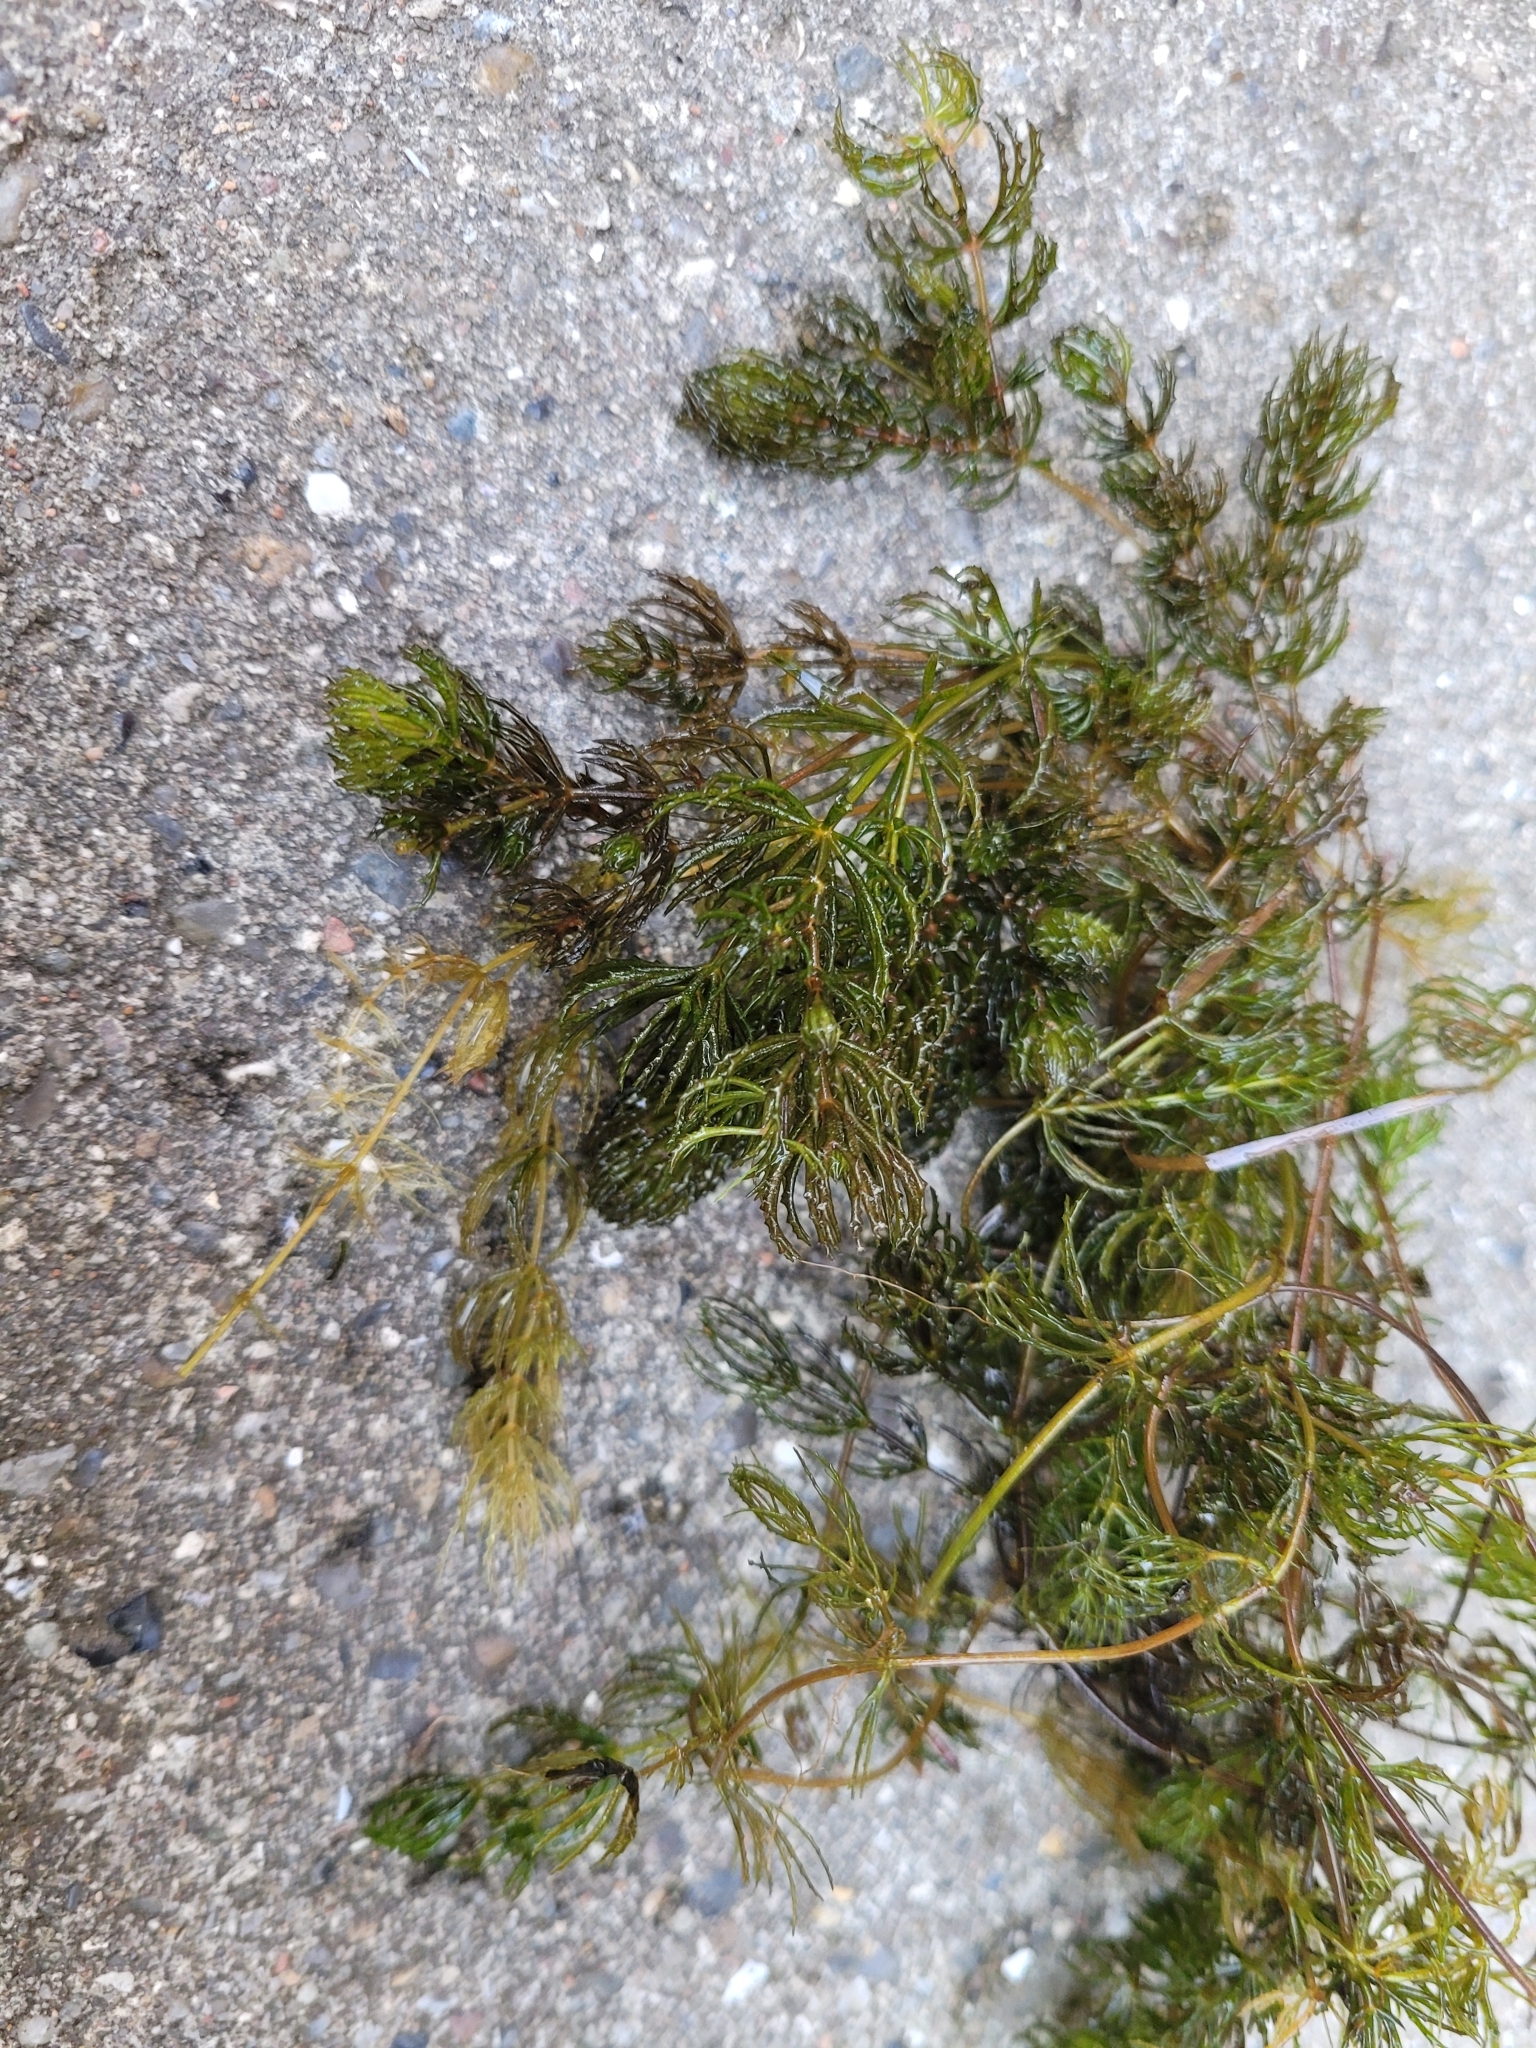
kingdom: Plantae
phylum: Tracheophyta
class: Magnoliopsida
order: Ceratophyllales
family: Ceratophyllaceae
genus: Ceratophyllum
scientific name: Ceratophyllum demersum
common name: Rigid hornwort
